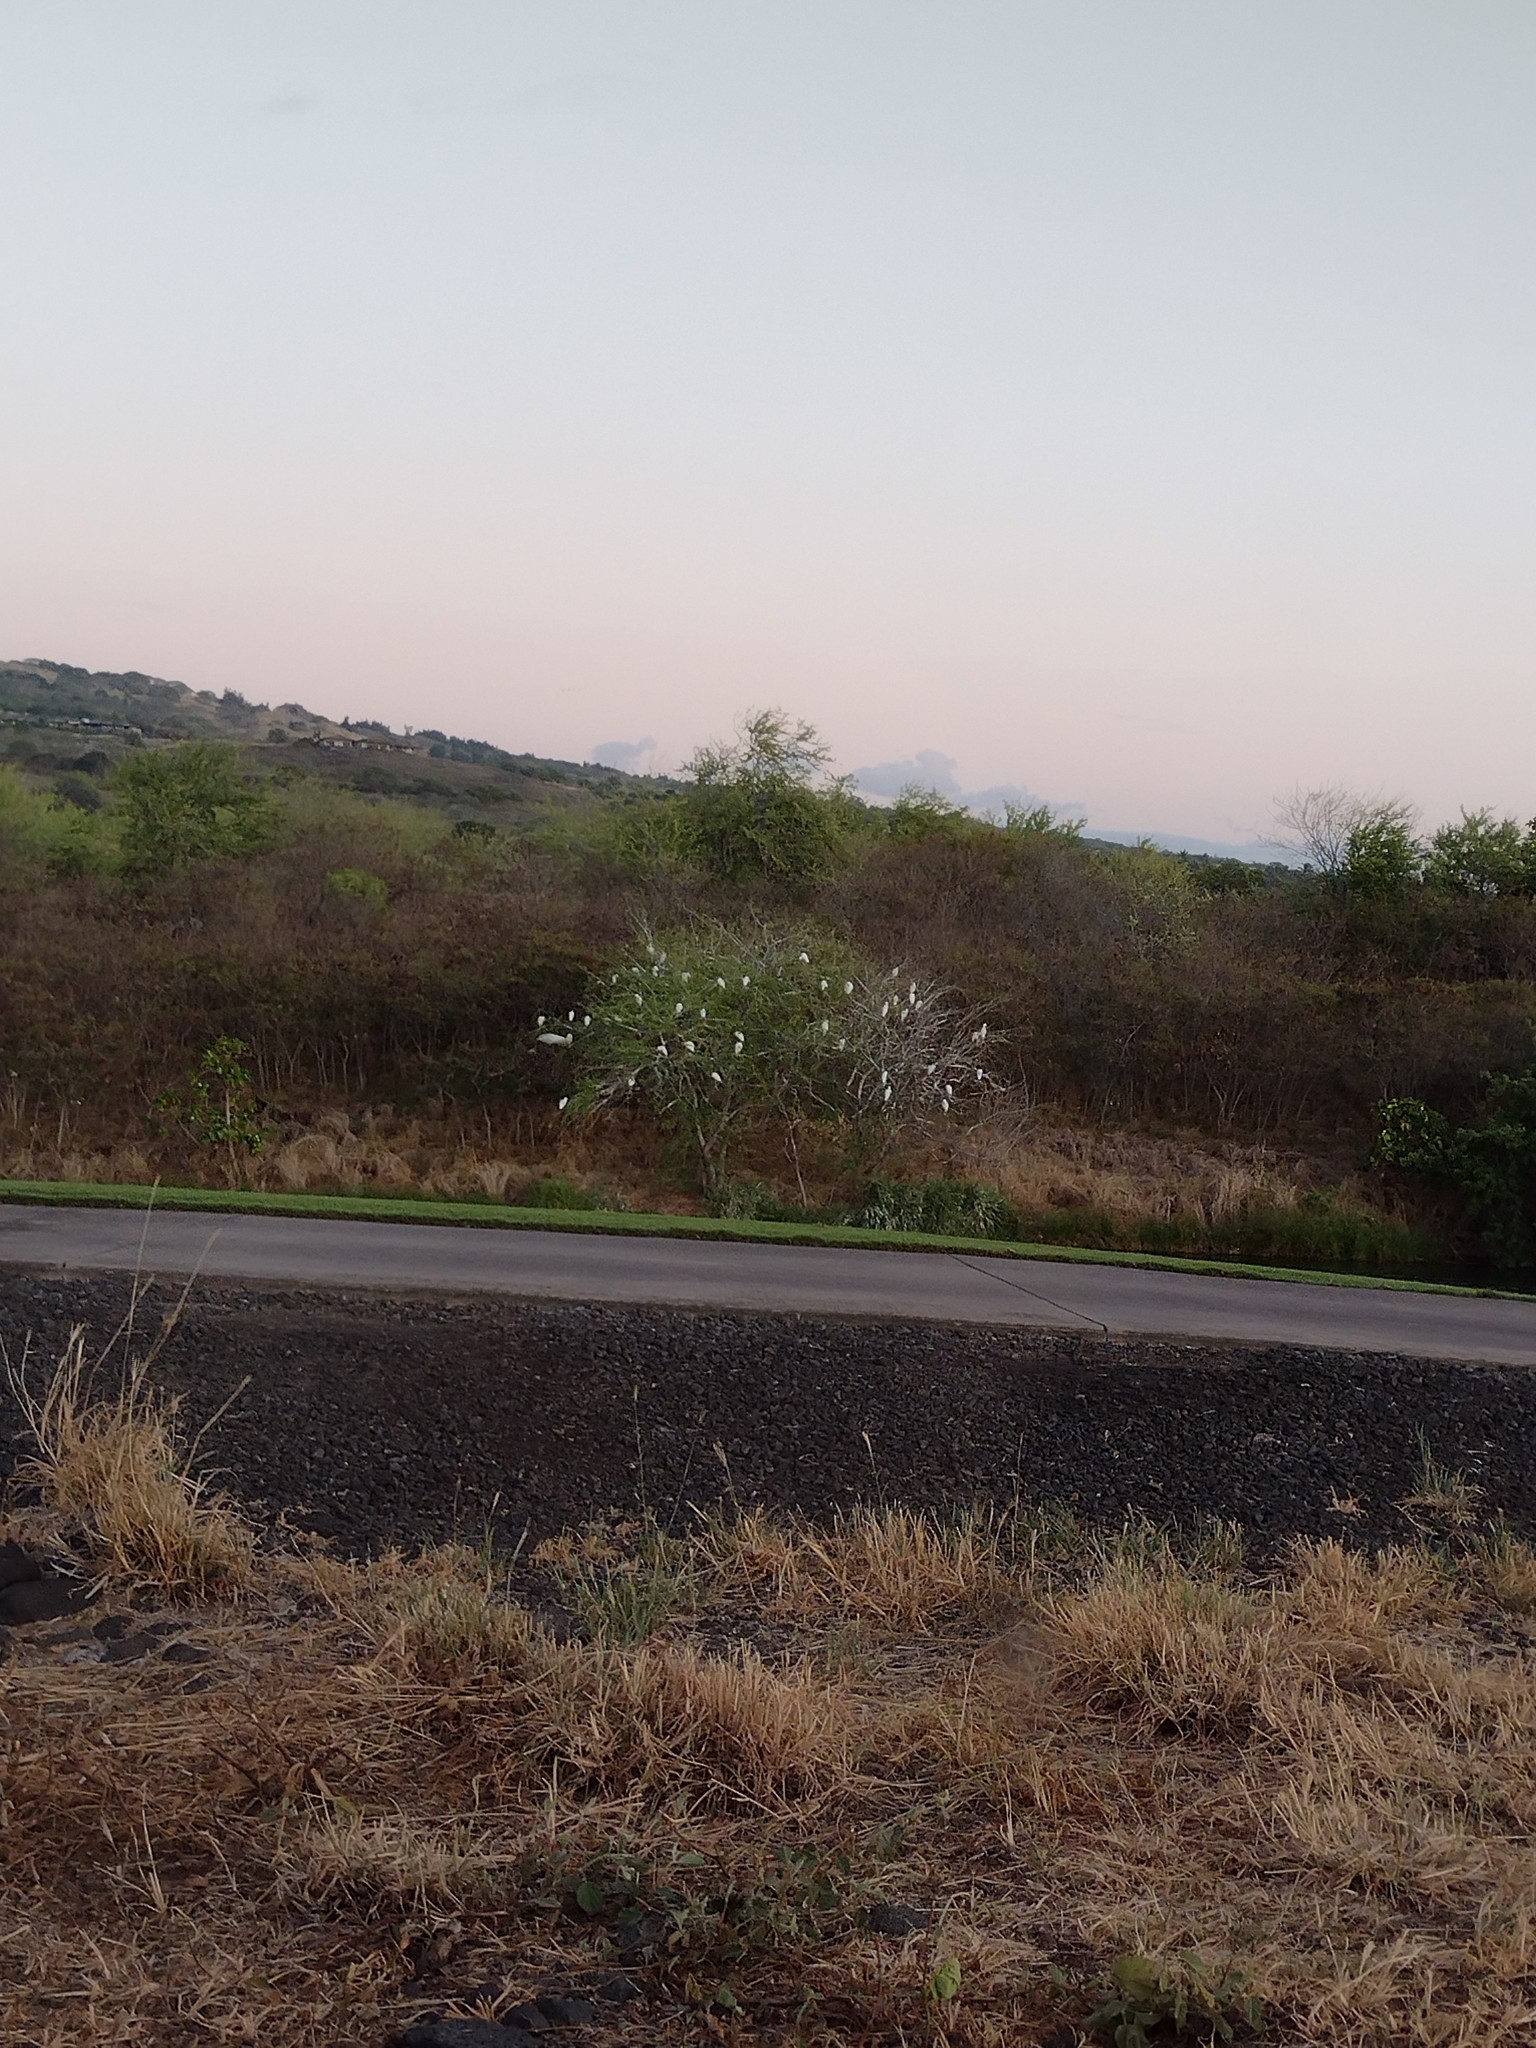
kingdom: Animalia
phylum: Chordata
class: Aves
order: Pelecaniformes
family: Ardeidae
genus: Bubulcus
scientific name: Bubulcus ibis
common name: Cattle egret
